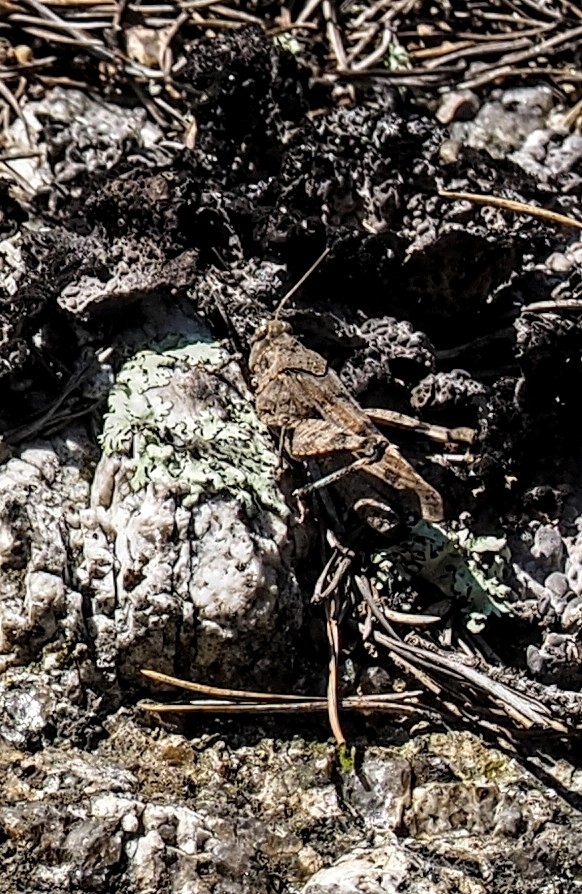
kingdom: Animalia
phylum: Arthropoda
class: Insecta
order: Orthoptera
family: Acrididae
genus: Oedipoda
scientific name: Oedipoda caerulescens
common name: Blue-winged grasshopper
